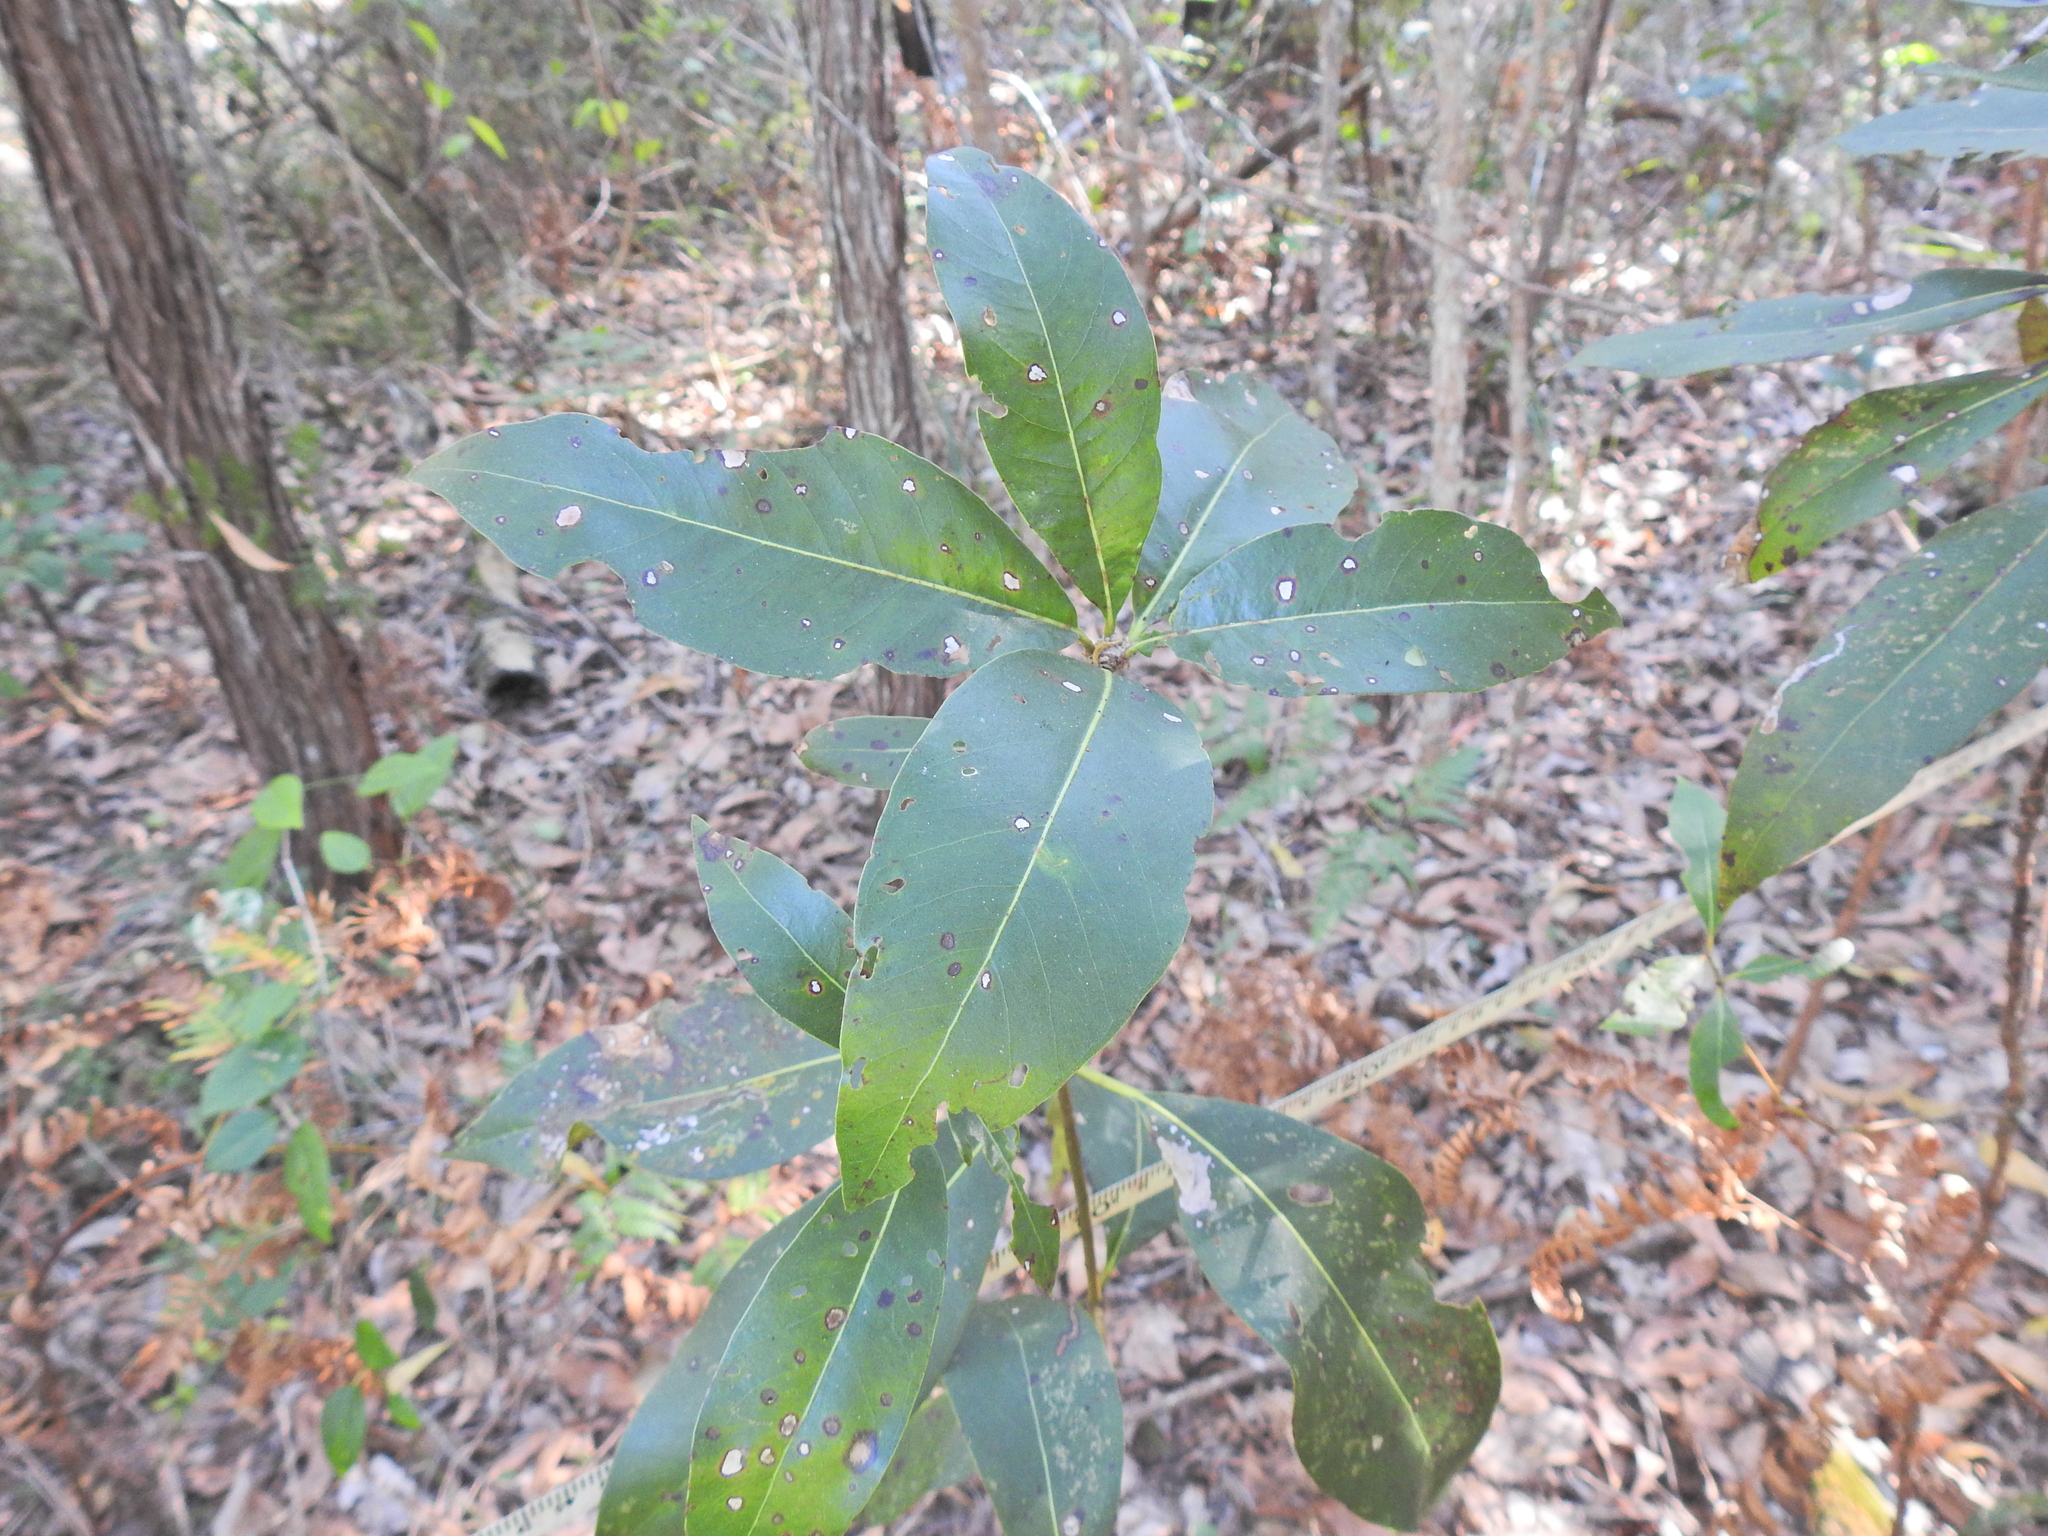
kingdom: Plantae
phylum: Tracheophyta
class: Magnoliopsida
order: Myrtales
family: Myrtaceae
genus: Lophostemon
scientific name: Lophostemon confertus
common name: Brisbane box
